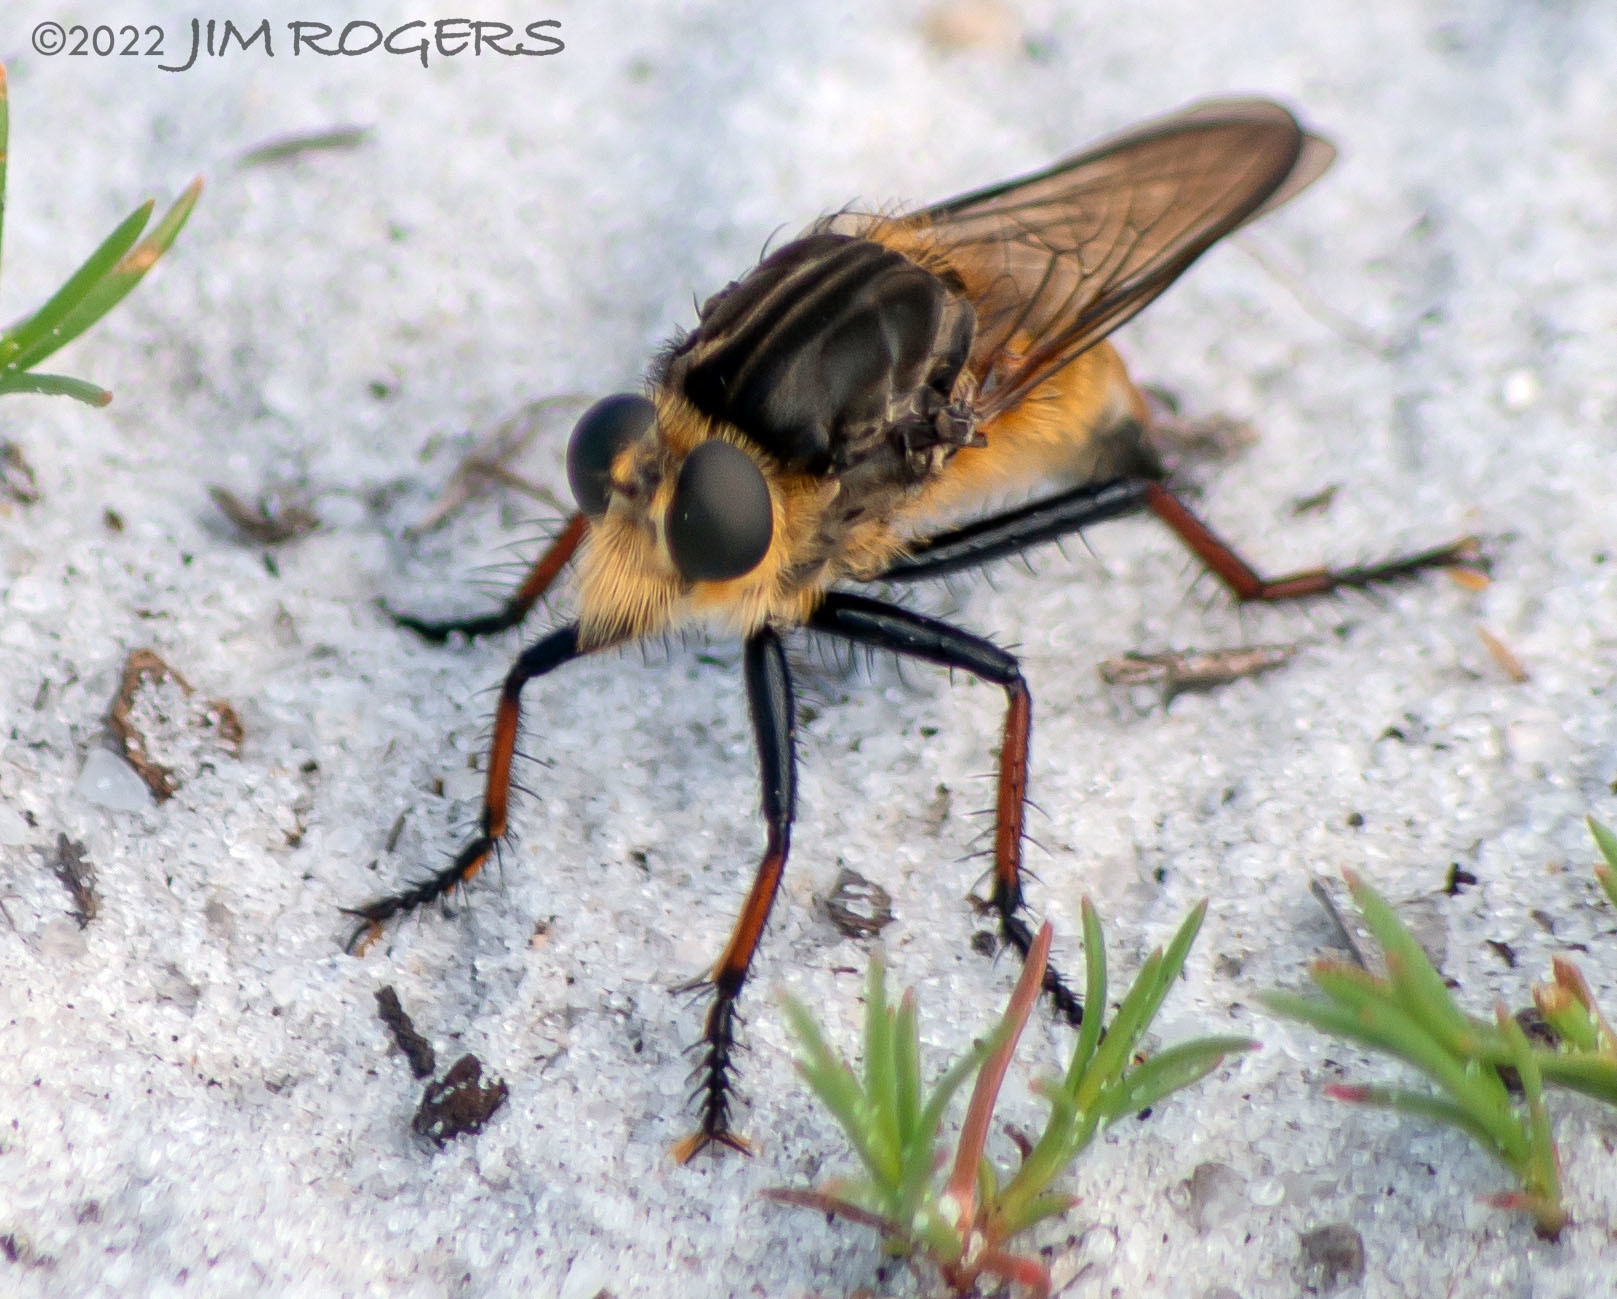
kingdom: Animalia
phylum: Arthropoda
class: Insecta
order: Diptera
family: Asilidae
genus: Proctacanthus
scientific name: Proctacanthus fulviventris
